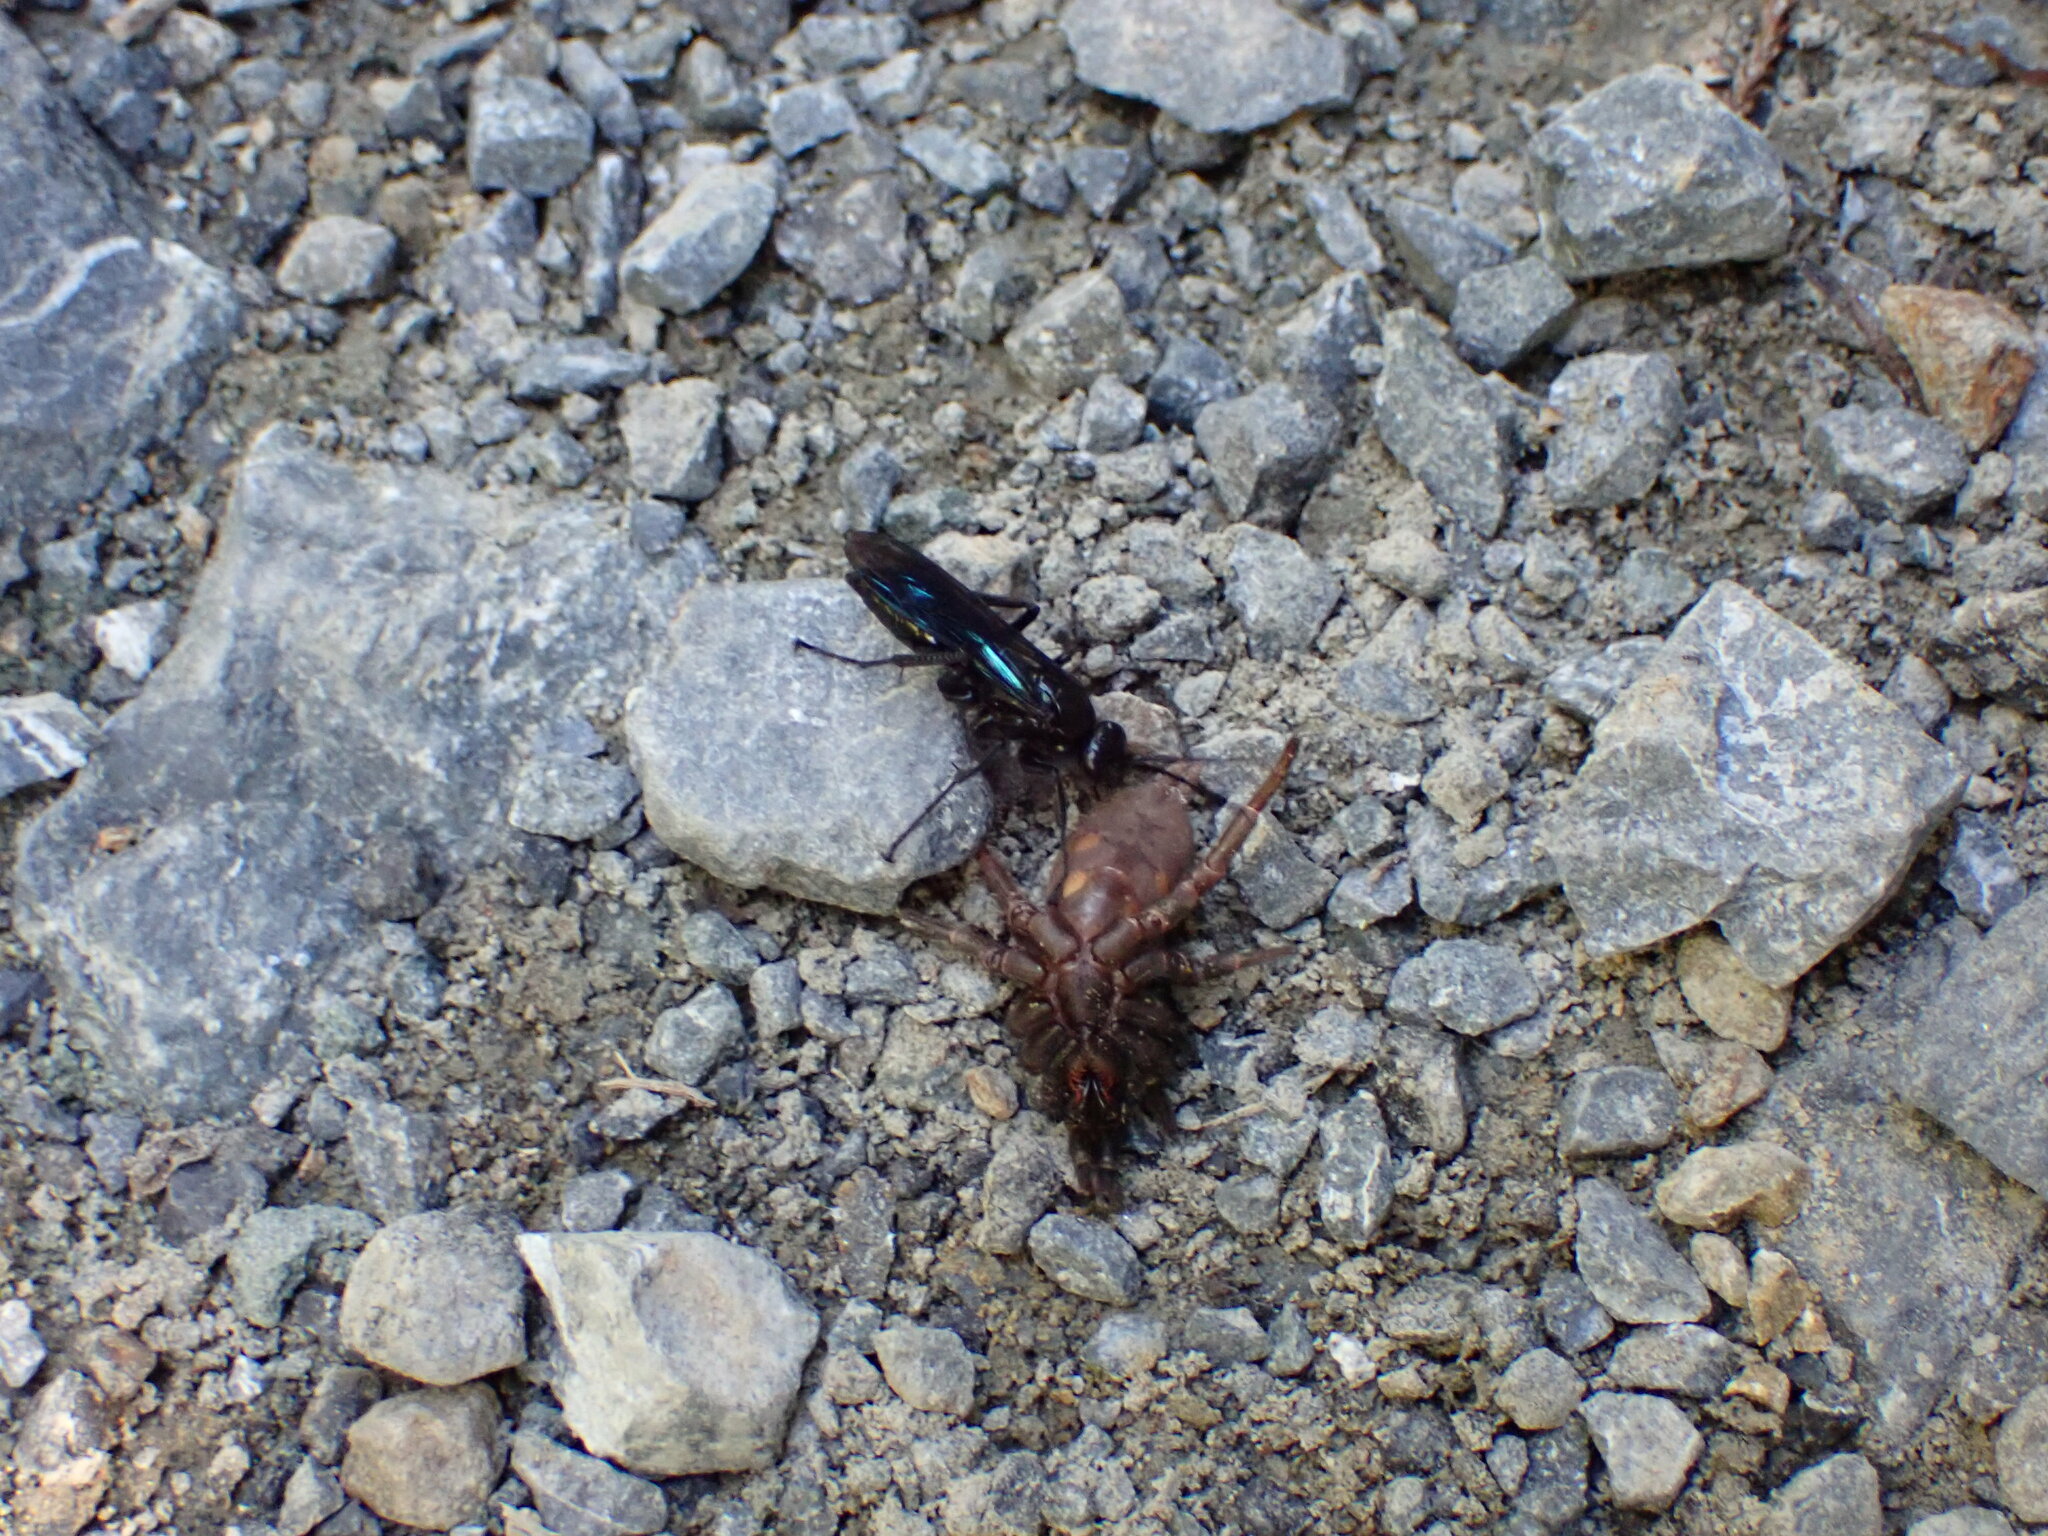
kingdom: Animalia
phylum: Arthropoda
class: Insecta
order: Hymenoptera
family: Pompilidae
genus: Priocnemis
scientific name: Priocnemis monachus
